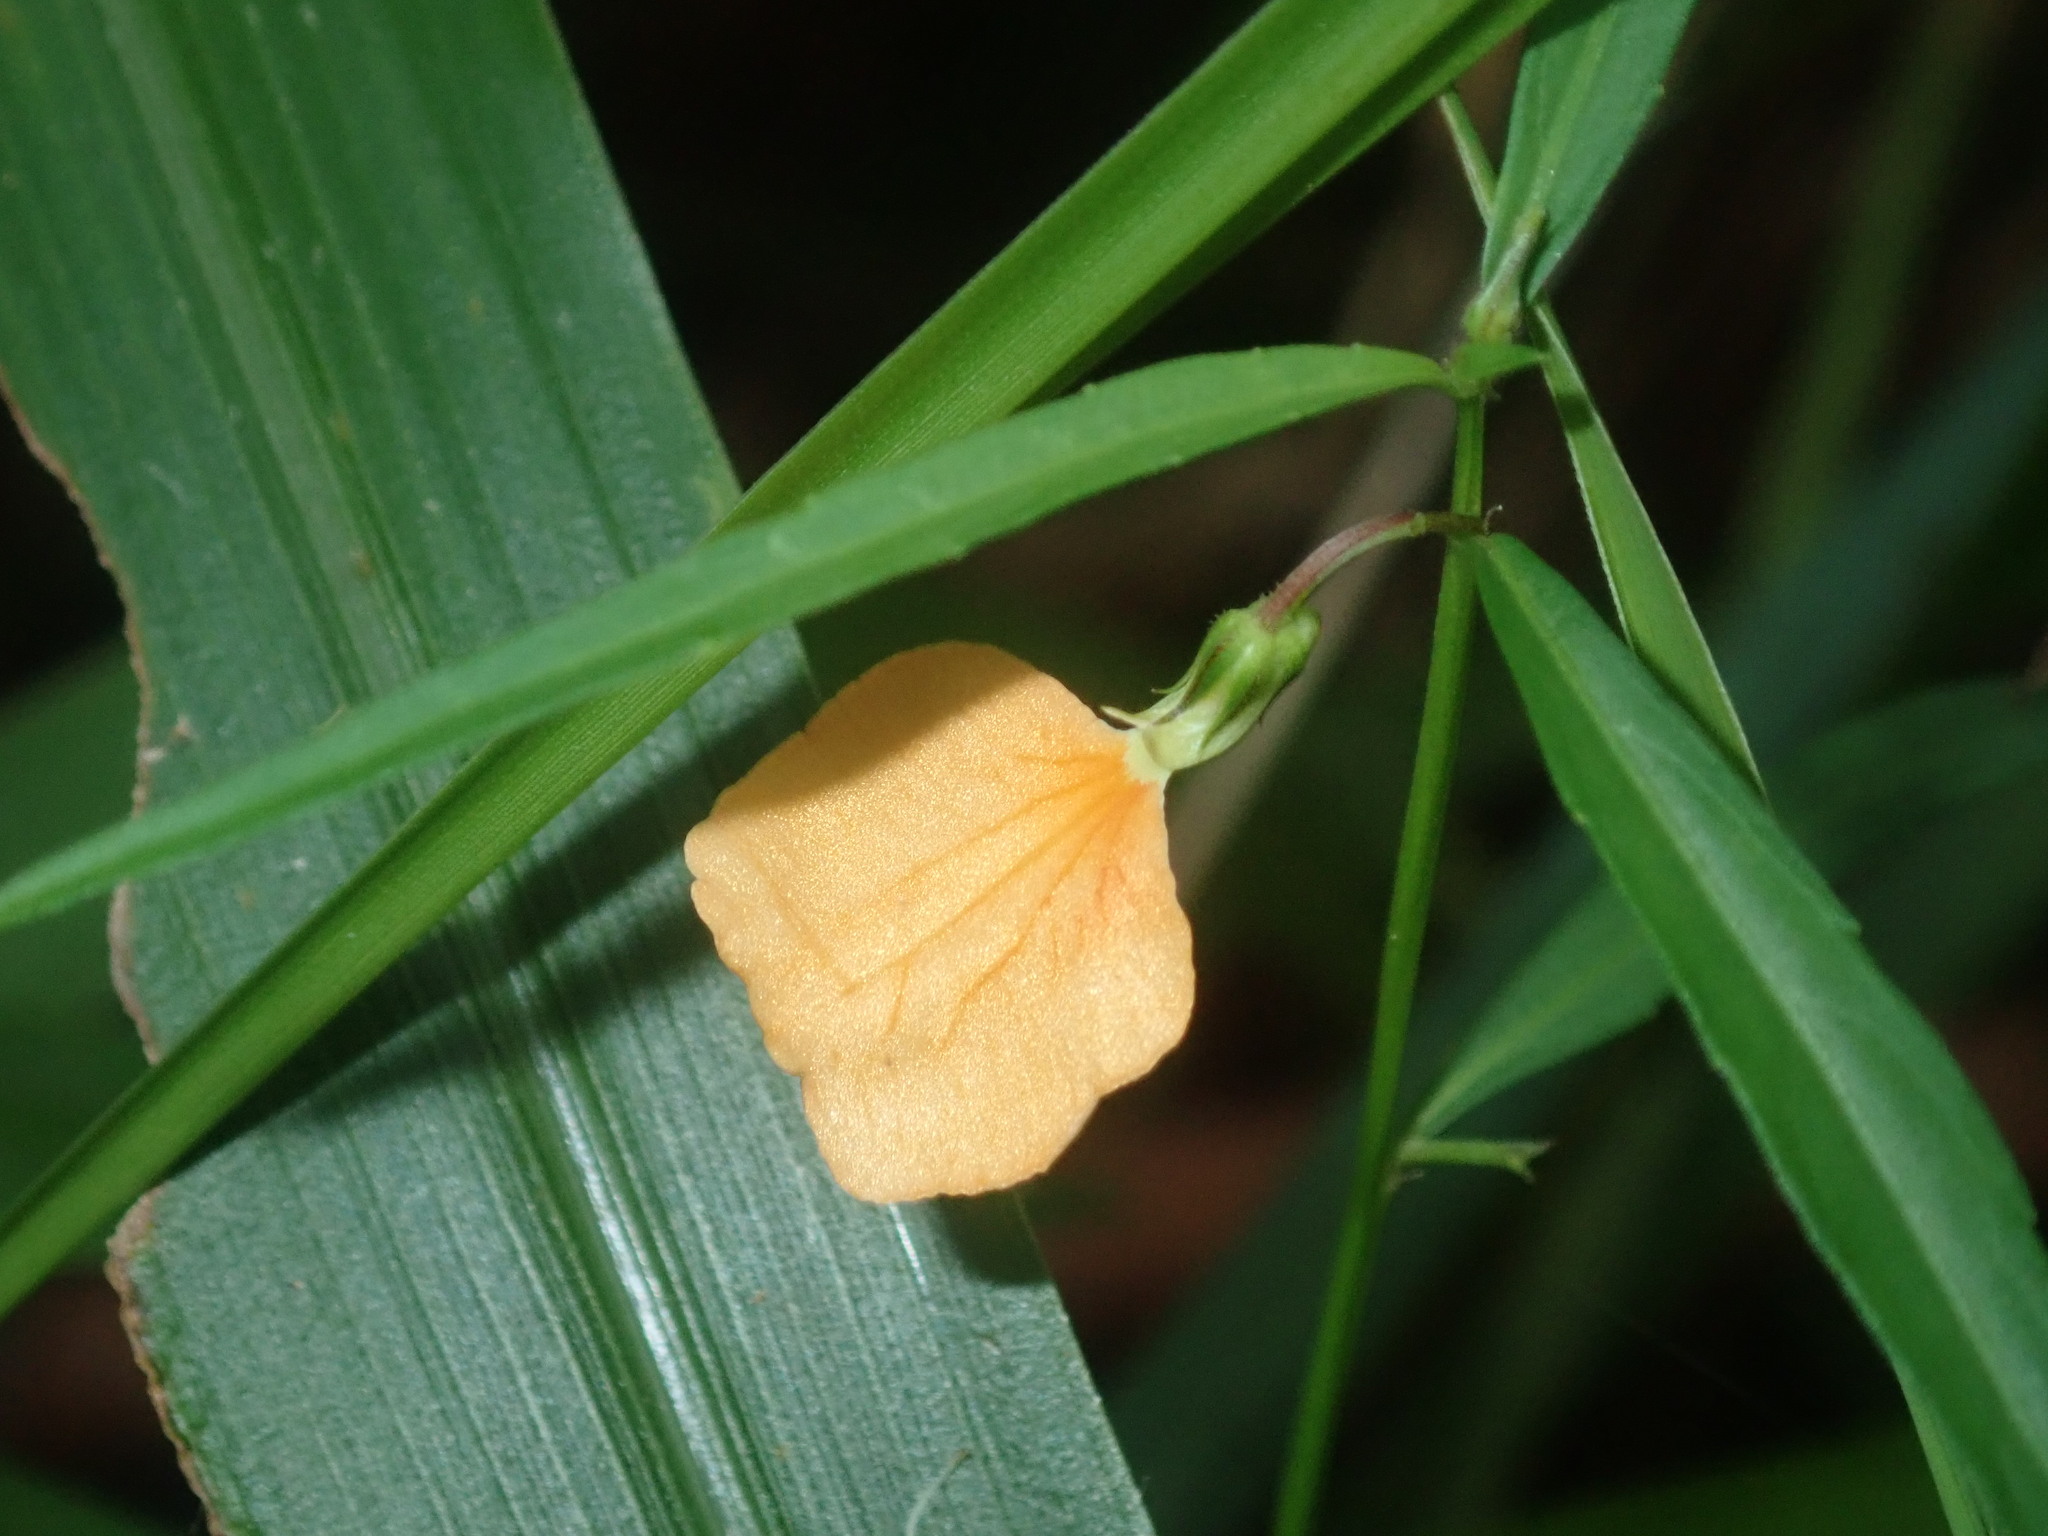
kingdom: Plantae
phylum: Tracheophyta
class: Magnoliopsida
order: Malpighiales
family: Violaceae
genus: Pigea
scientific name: Pigea stellarioides
